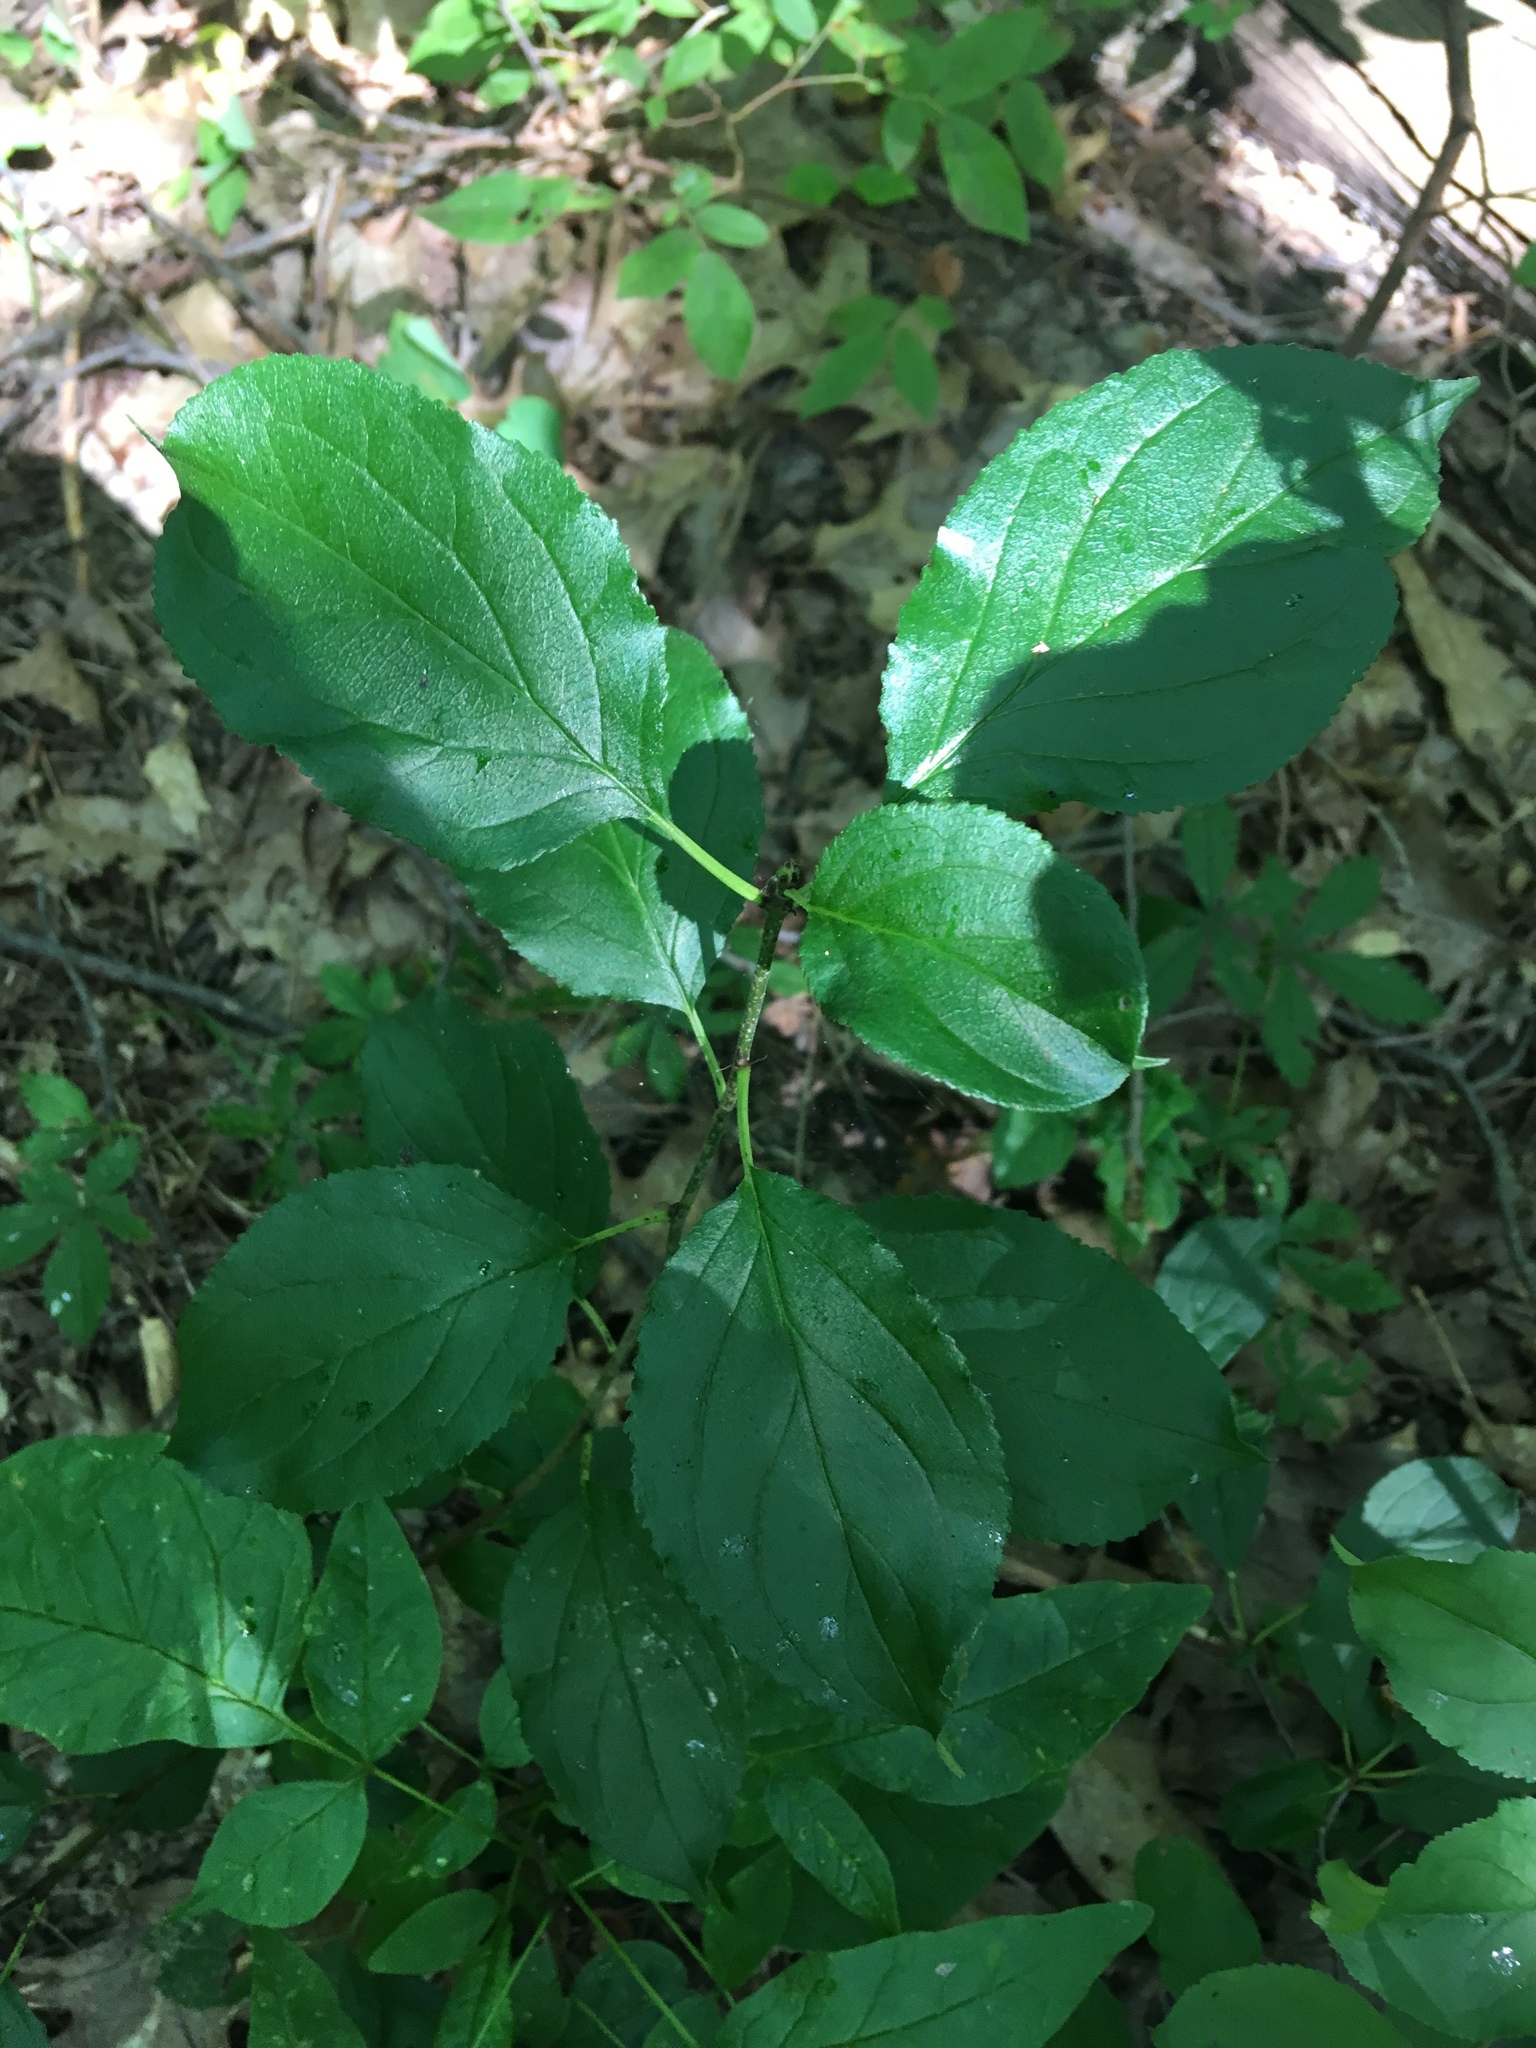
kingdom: Plantae
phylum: Tracheophyta
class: Magnoliopsida
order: Rosales
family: Rhamnaceae
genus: Rhamnus
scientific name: Rhamnus cathartica
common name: Common buckthorn
